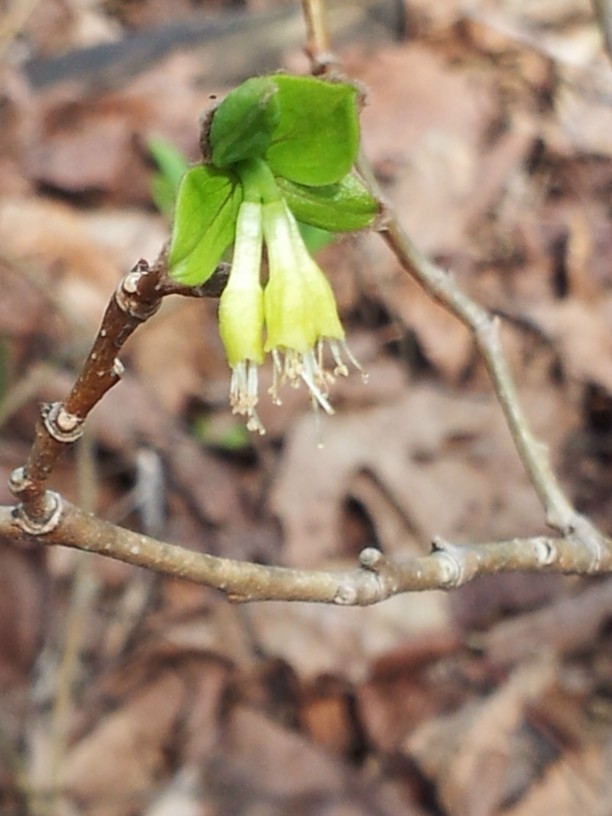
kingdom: Plantae
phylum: Tracheophyta
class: Magnoliopsida
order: Malvales
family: Thymelaeaceae
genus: Dirca
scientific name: Dirca palustris
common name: Leatherwood
